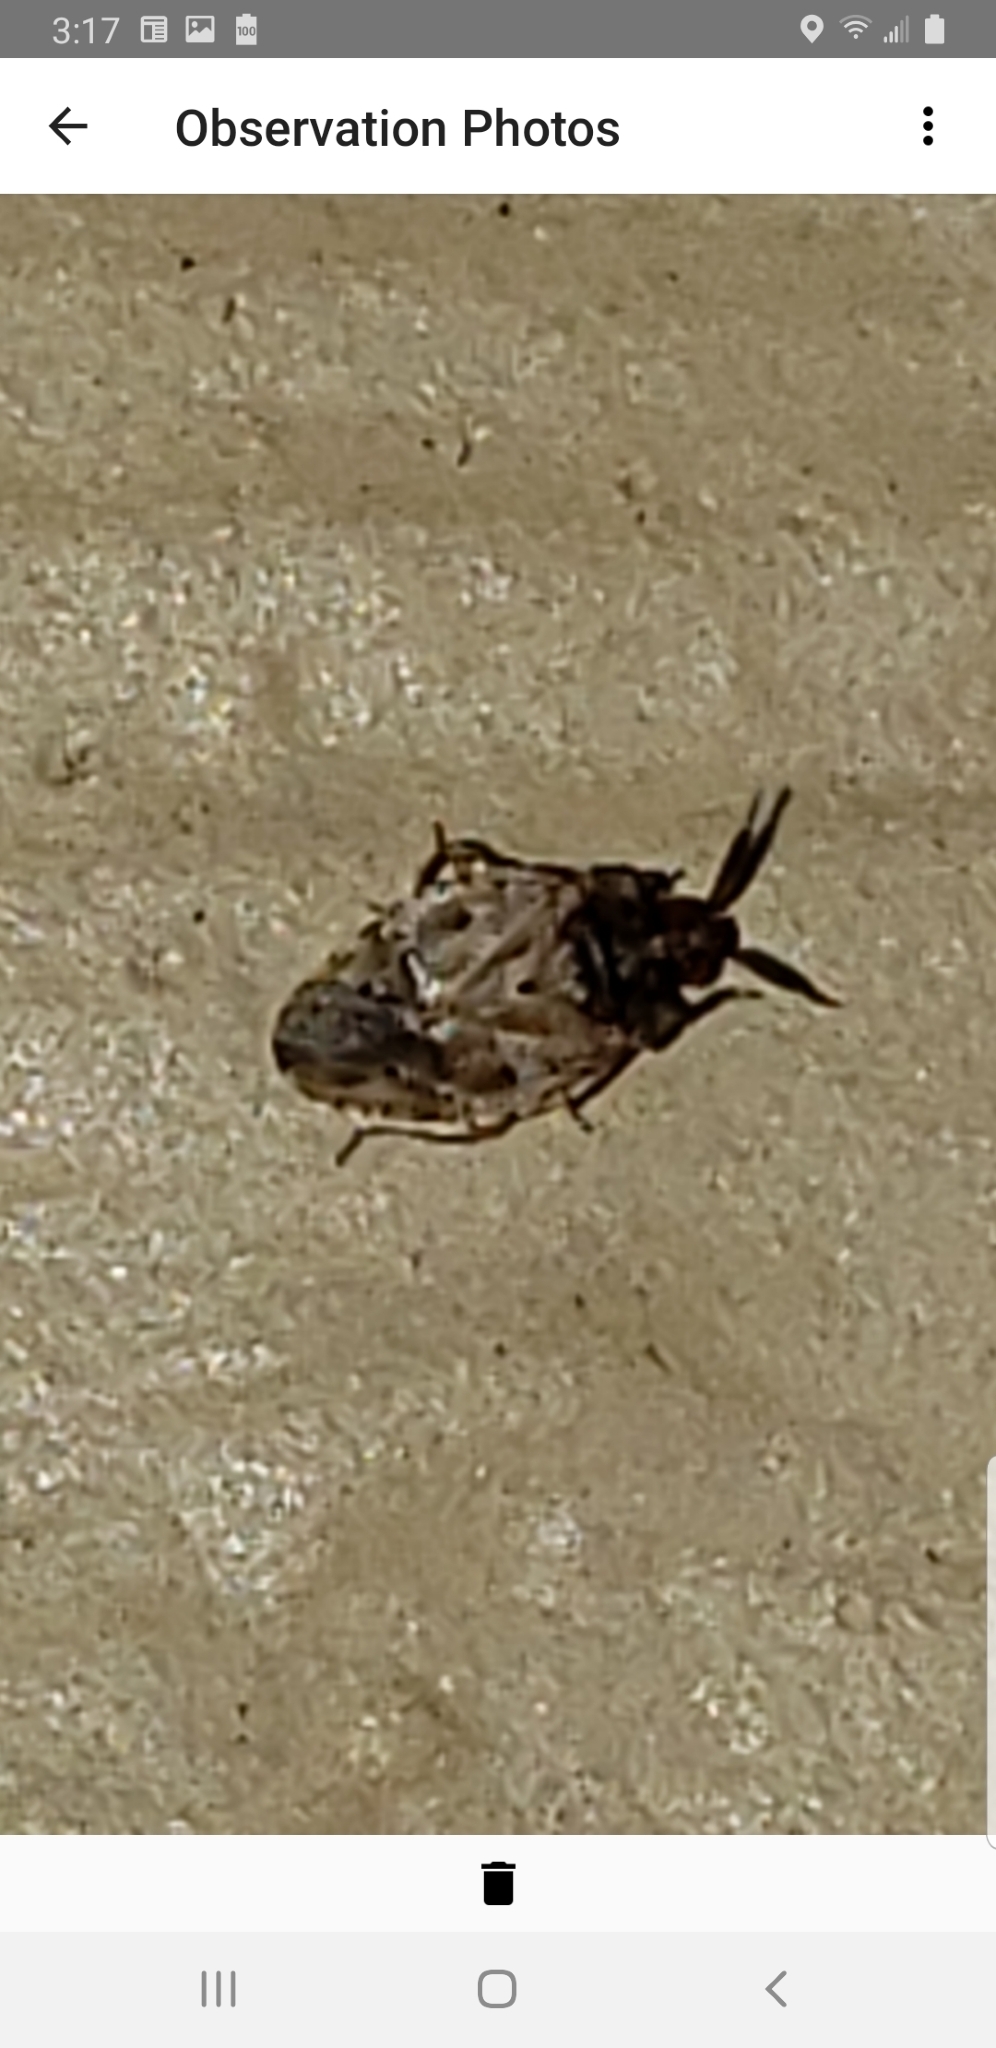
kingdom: Animalia
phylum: Arthropoda
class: Insecta
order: Hemiptera
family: Miridae
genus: Diphleps
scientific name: Diphleps unica
